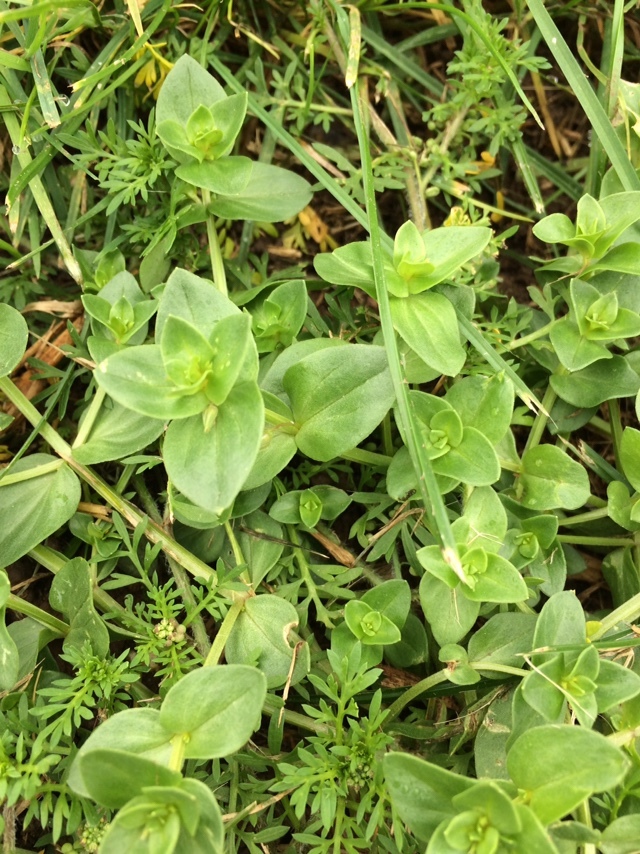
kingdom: Plantae
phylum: Tracheophyta
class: Magnoliopsida
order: Ericales
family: Primulaceae
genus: Lysimachia
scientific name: Lysimachia arvensis
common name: Scarlet pimpernel
